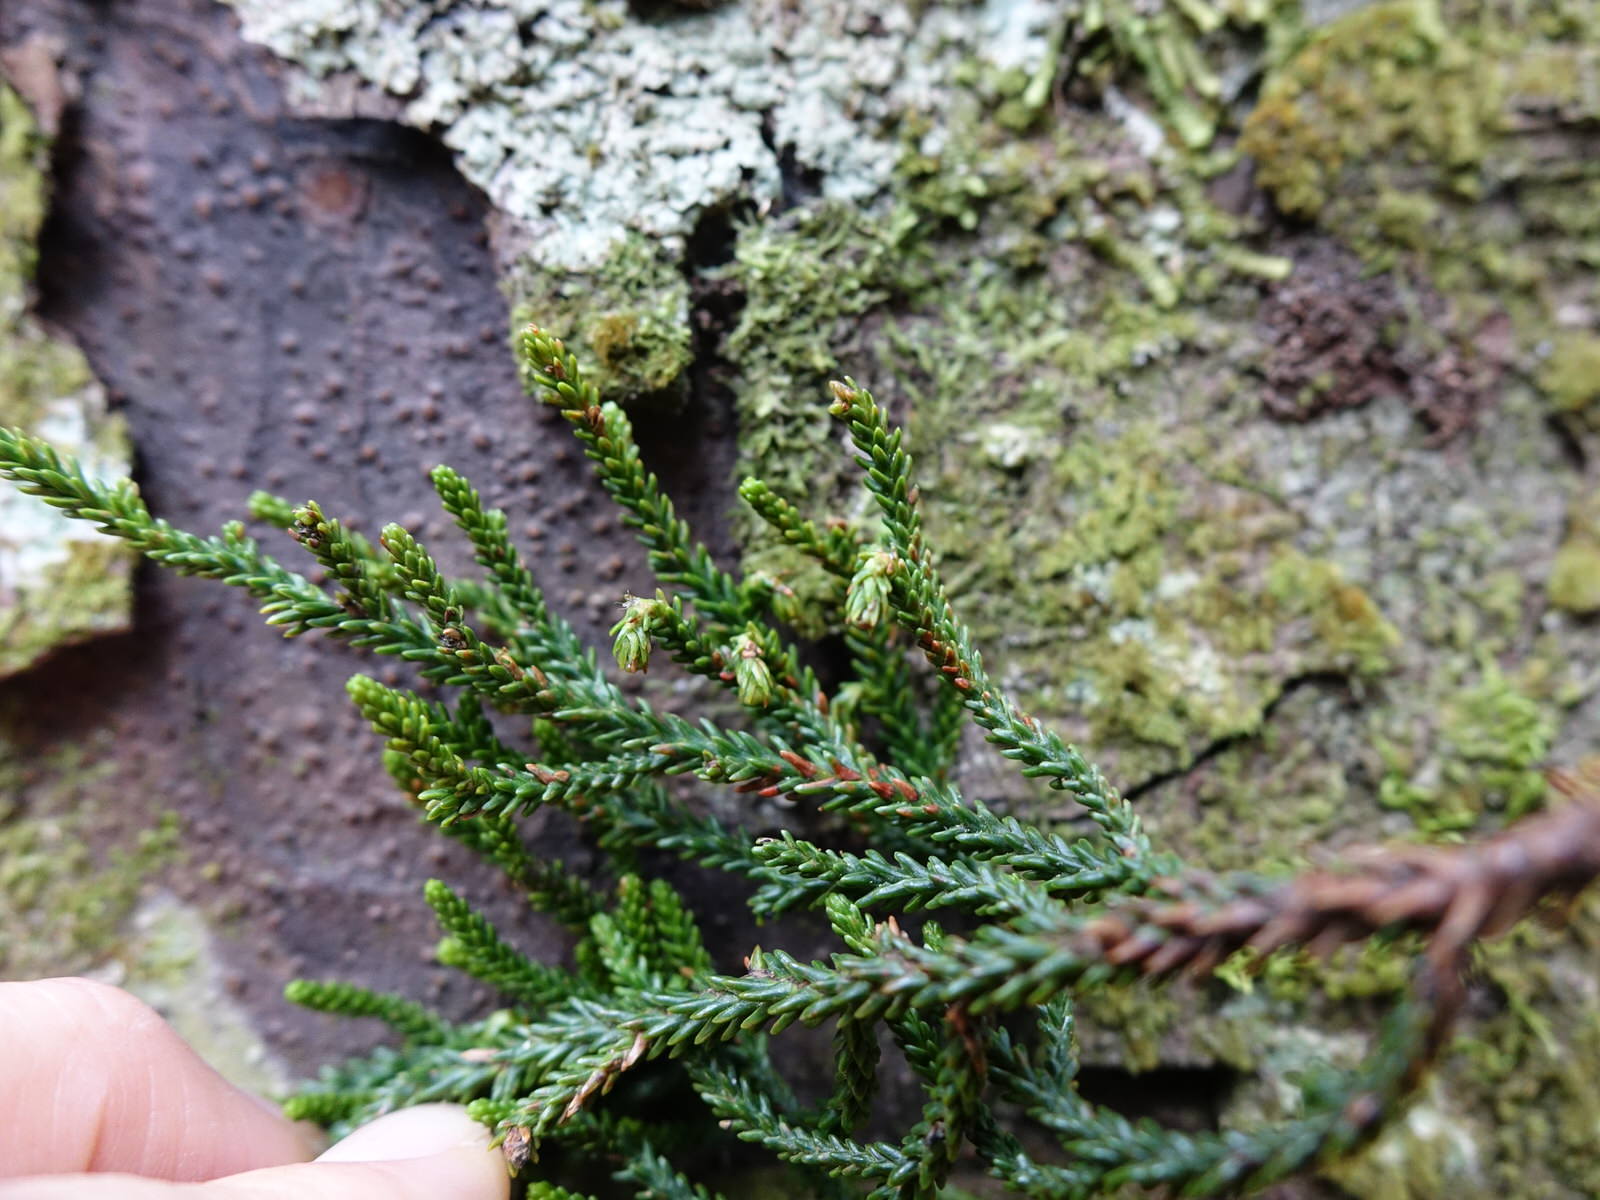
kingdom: Plantae
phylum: Tracheophyta
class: Pinopsida
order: Pinales
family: Podocarpaceae
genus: Dacrydium
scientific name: Dacrydium cupressinum
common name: Red pine
